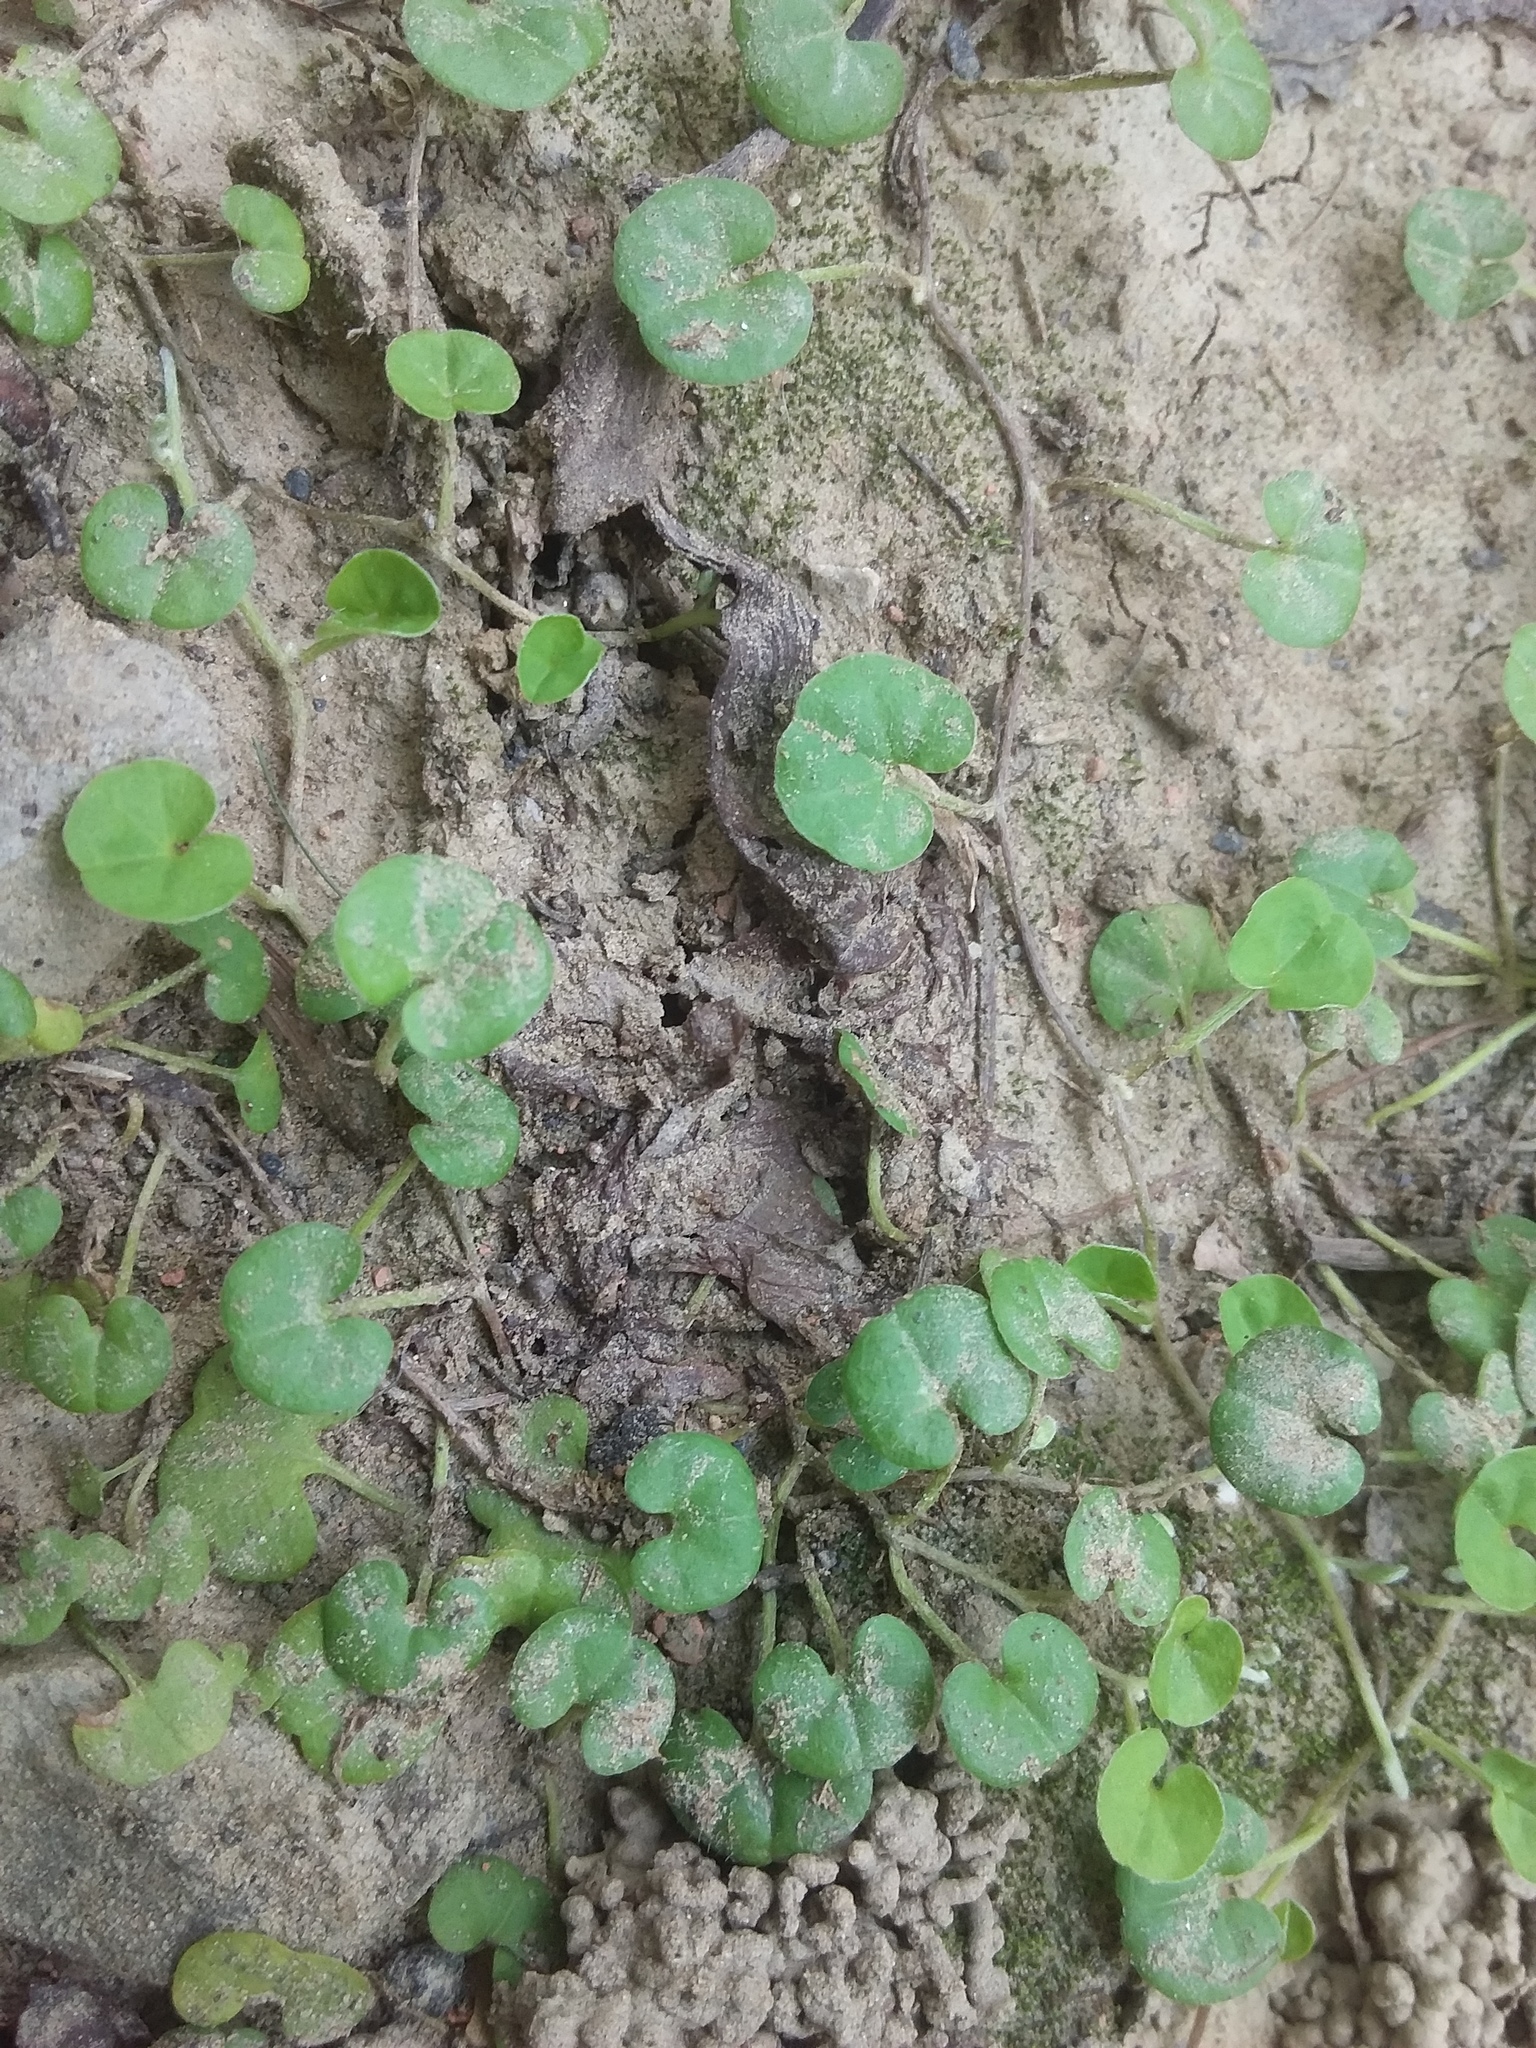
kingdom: Plantae
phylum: Tracheophyta
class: Magnoliopsida
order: Solanales
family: Convolvulaceae
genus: Dichondra
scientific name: Dichondra micrantha
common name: Kidneyweed
